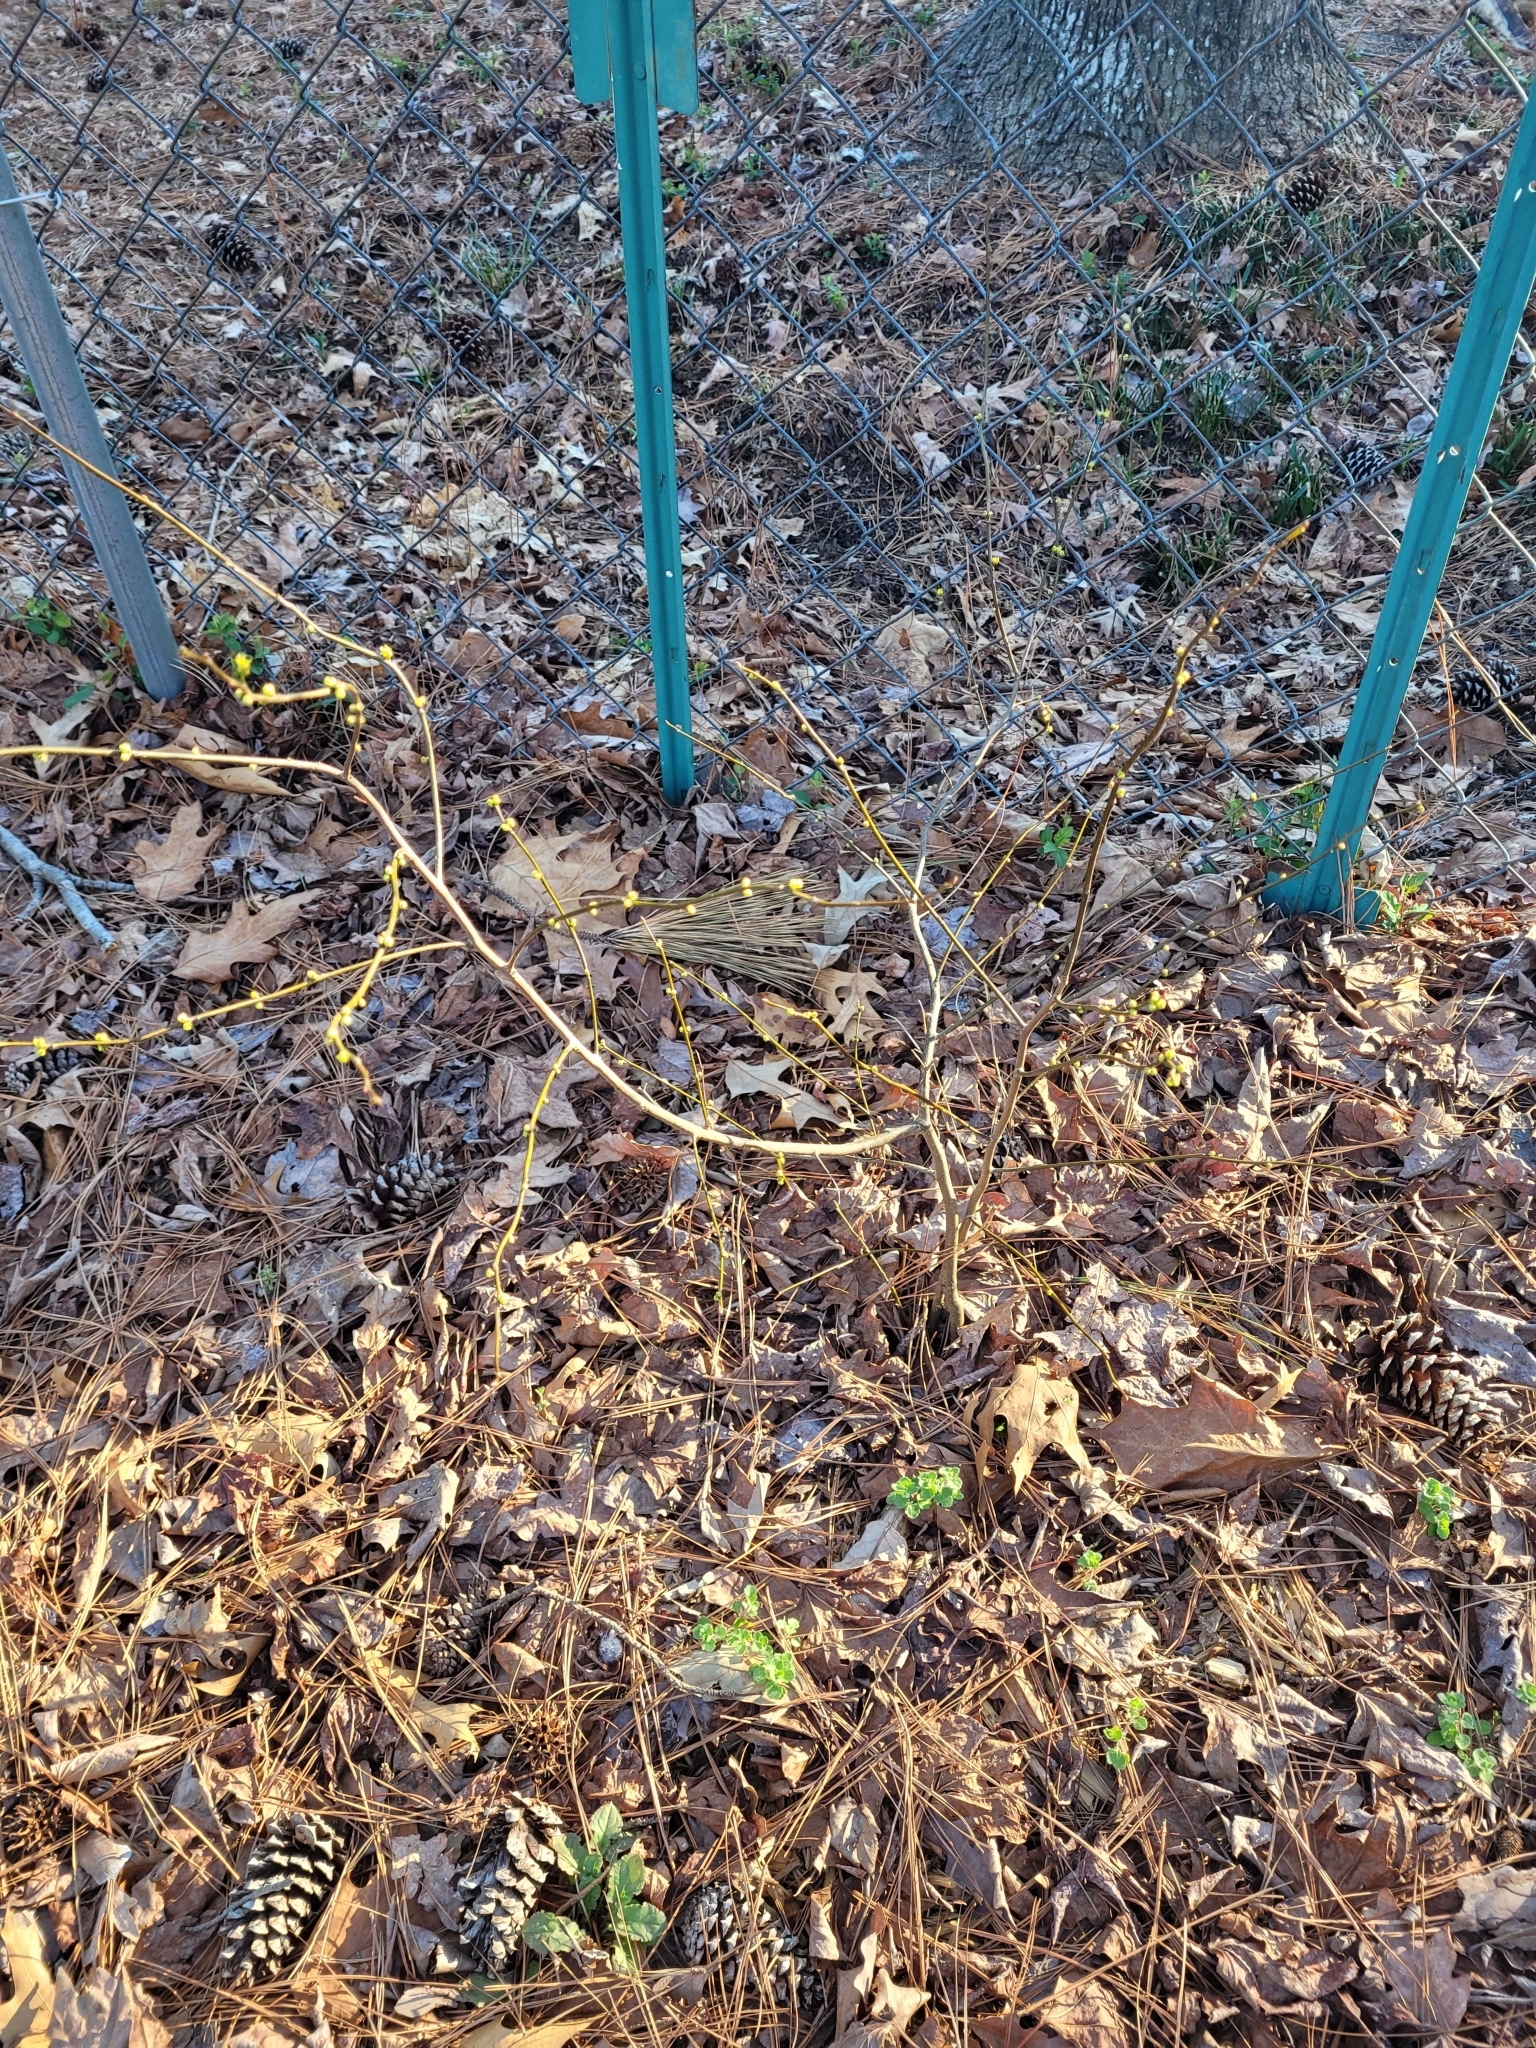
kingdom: Plantae
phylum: Tracheophyta
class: Magnoliopsida
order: Laurales
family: Lauraceae
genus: Lindera
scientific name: Lindera benzoin
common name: Spicebush
